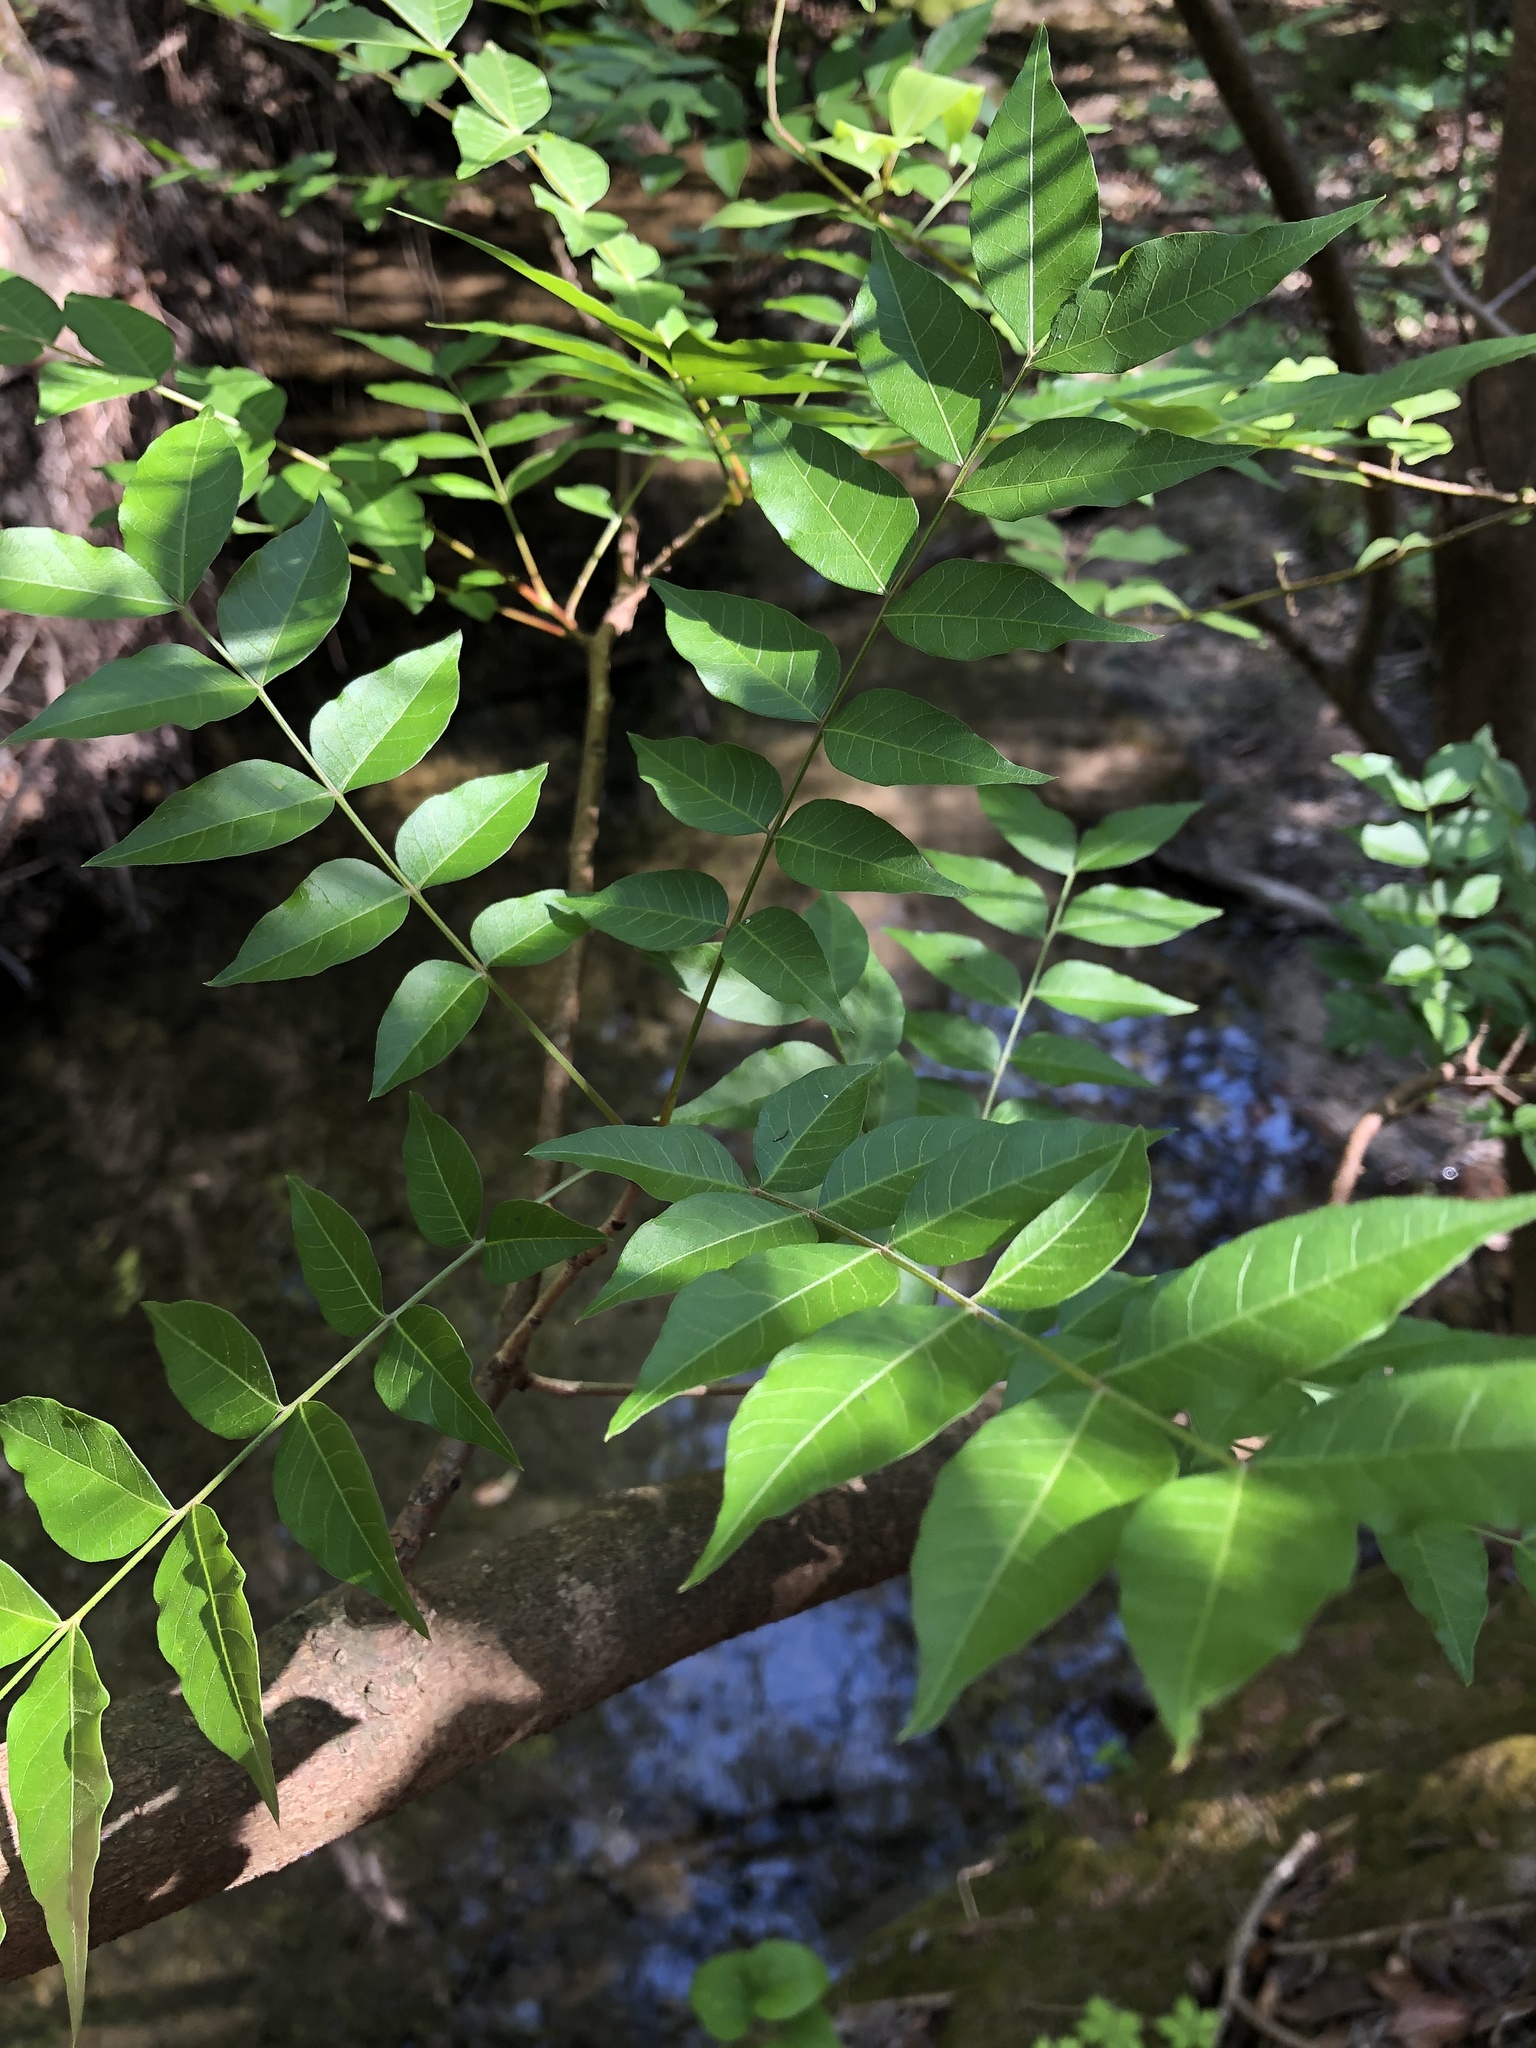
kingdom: Plantae
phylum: Tracheophyta
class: Magnoliopsida
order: Sapindales
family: Anacardiaceae
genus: Pistacia
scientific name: Pistacia chinensis
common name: Chinese pistache
